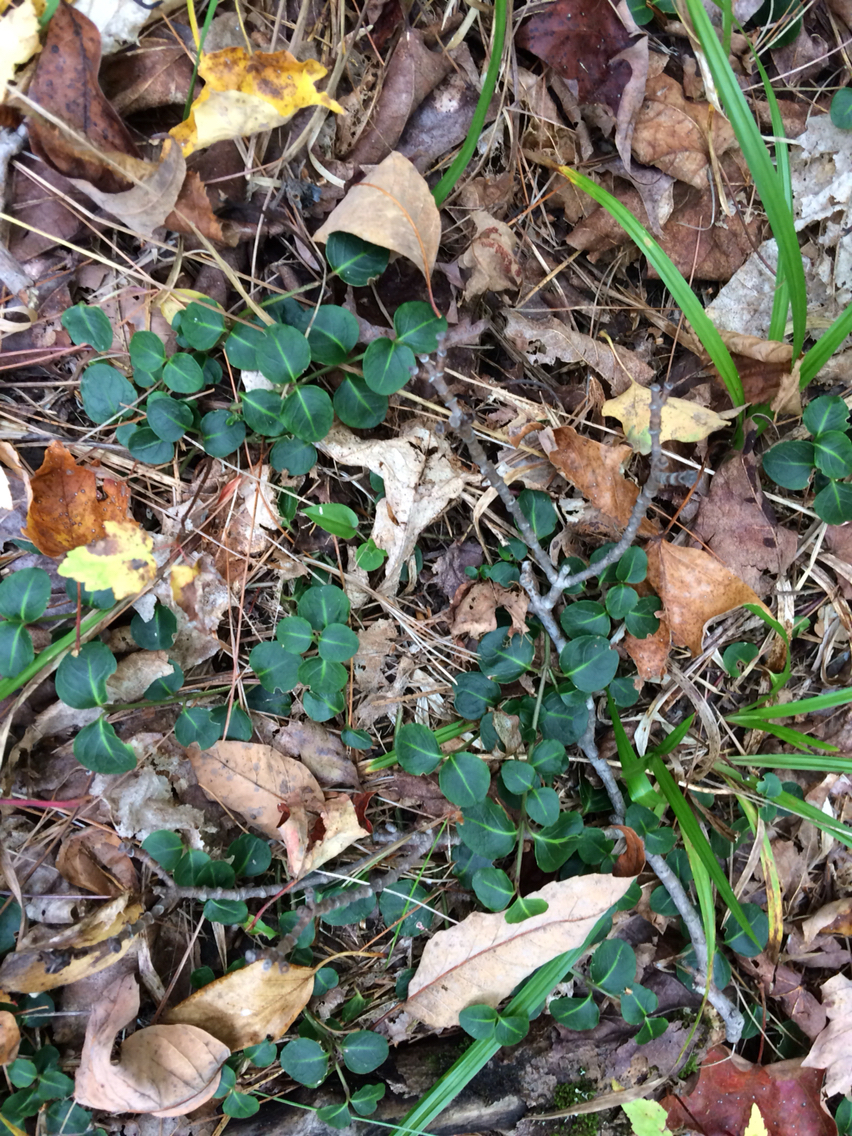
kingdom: Plantae
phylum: Tracheophyta
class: Magnoliopsida
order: Gentianales
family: Rubiaceae
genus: Mitchella
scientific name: Mitchella repens
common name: Partridge-berry
